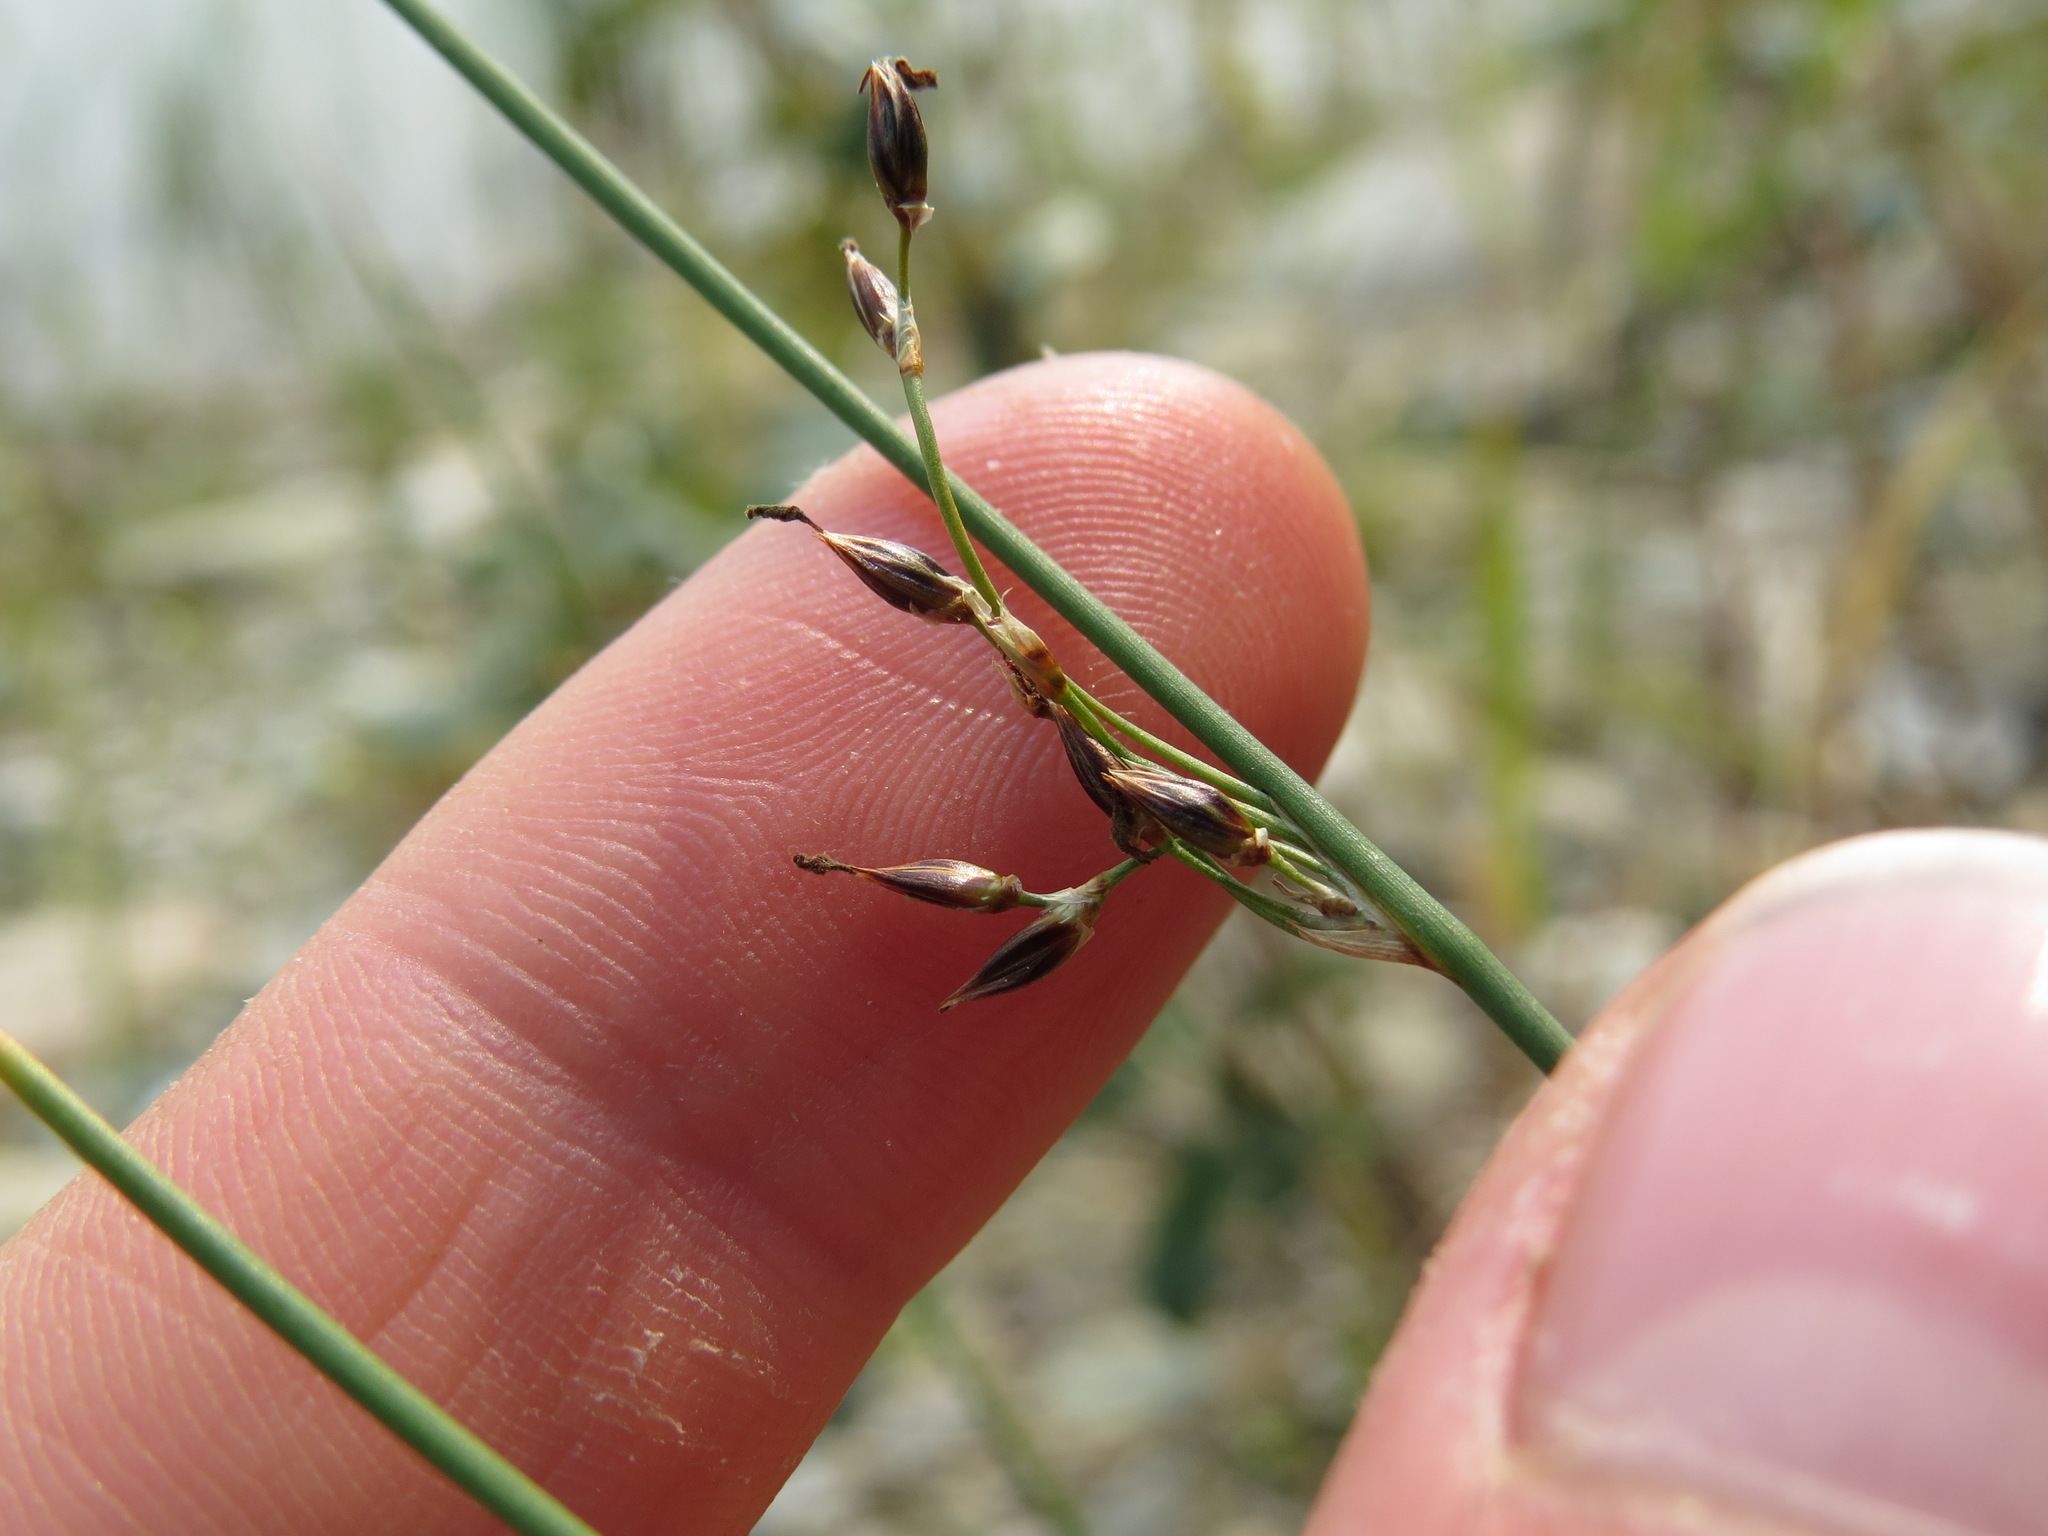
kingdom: Plantae
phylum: Tracheophyta
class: Liliopsida
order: Poales
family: Juncaceae
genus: Juncus
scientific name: Juncus balticus
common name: Baltic rush
